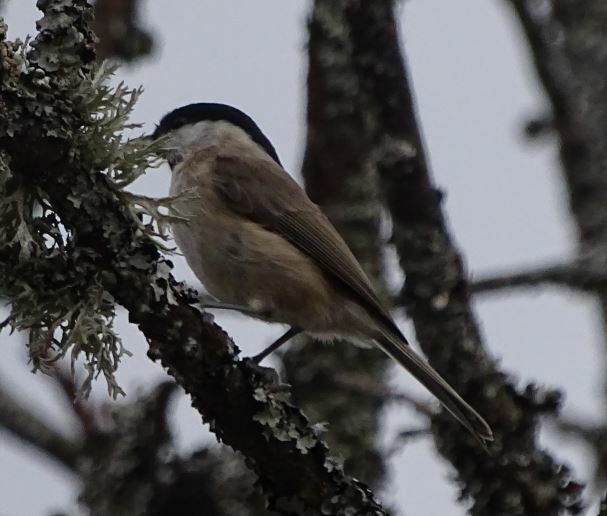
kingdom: Animalia
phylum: Chordata
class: Aves
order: Passeriformes
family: Paridae
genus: Poecile
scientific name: Poecile palustris
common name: Marsh tit
